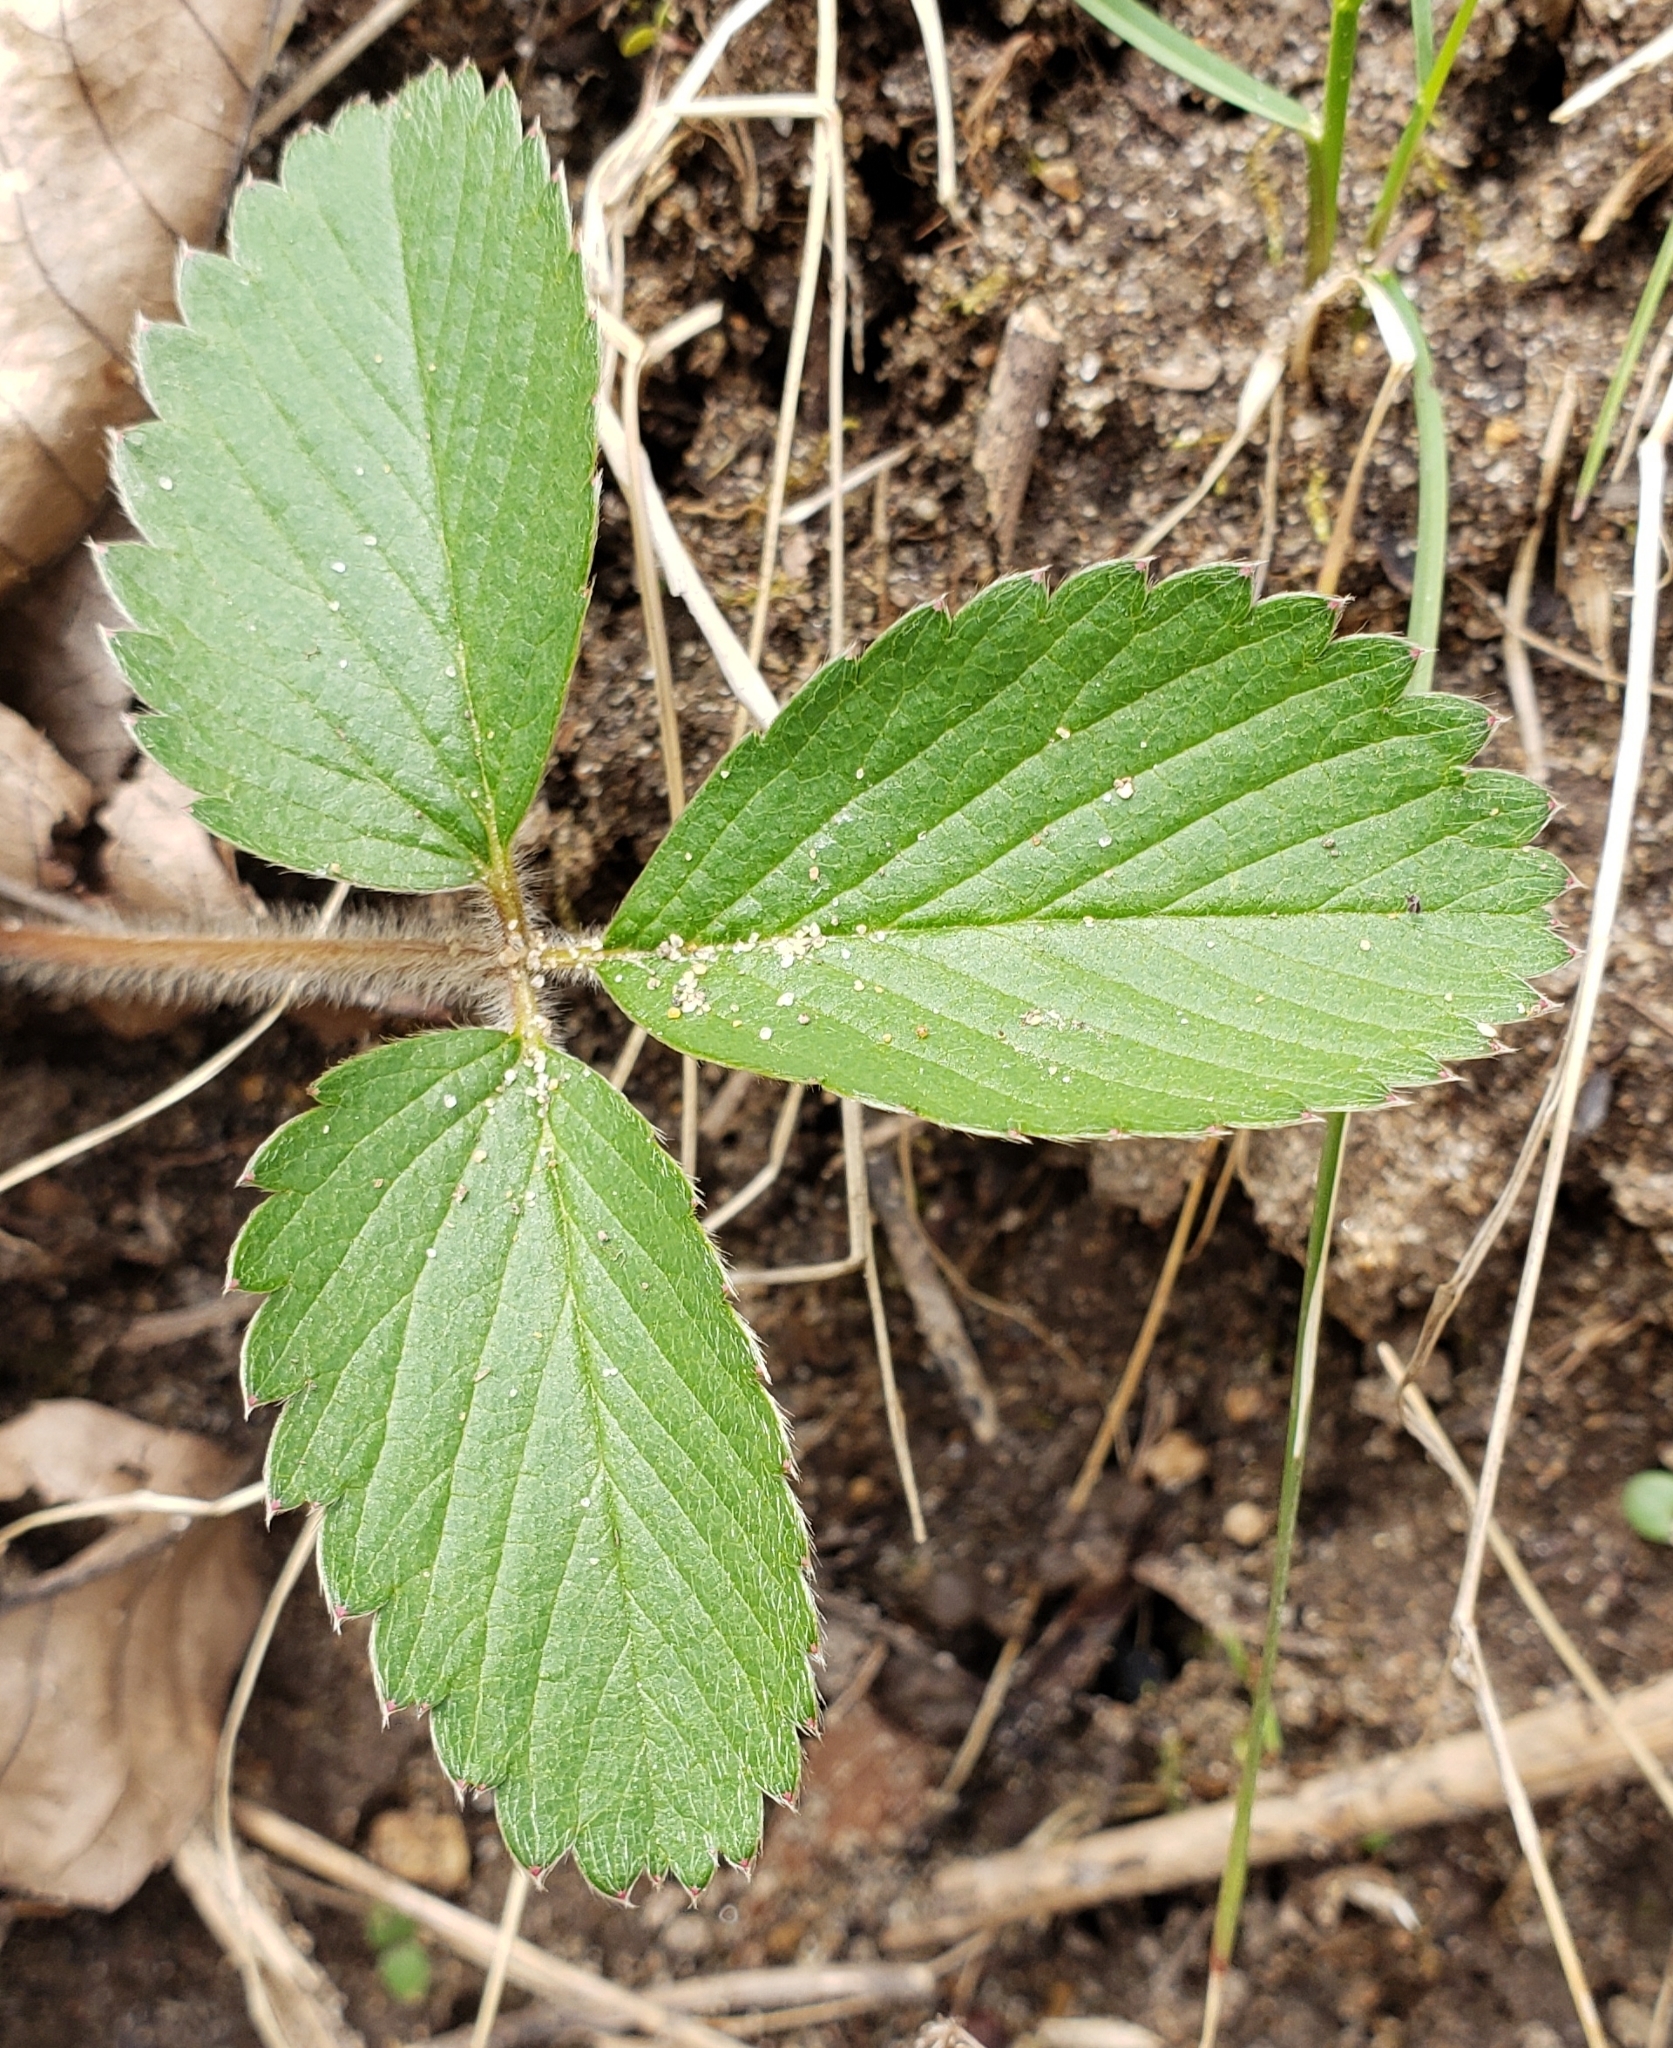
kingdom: Plantae
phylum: Tracheophyta
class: Magnoliopsida
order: Rosales
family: Rosaceae
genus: Fragaria
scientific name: Fragaria virginiana
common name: Thickleaved wild strawberry
